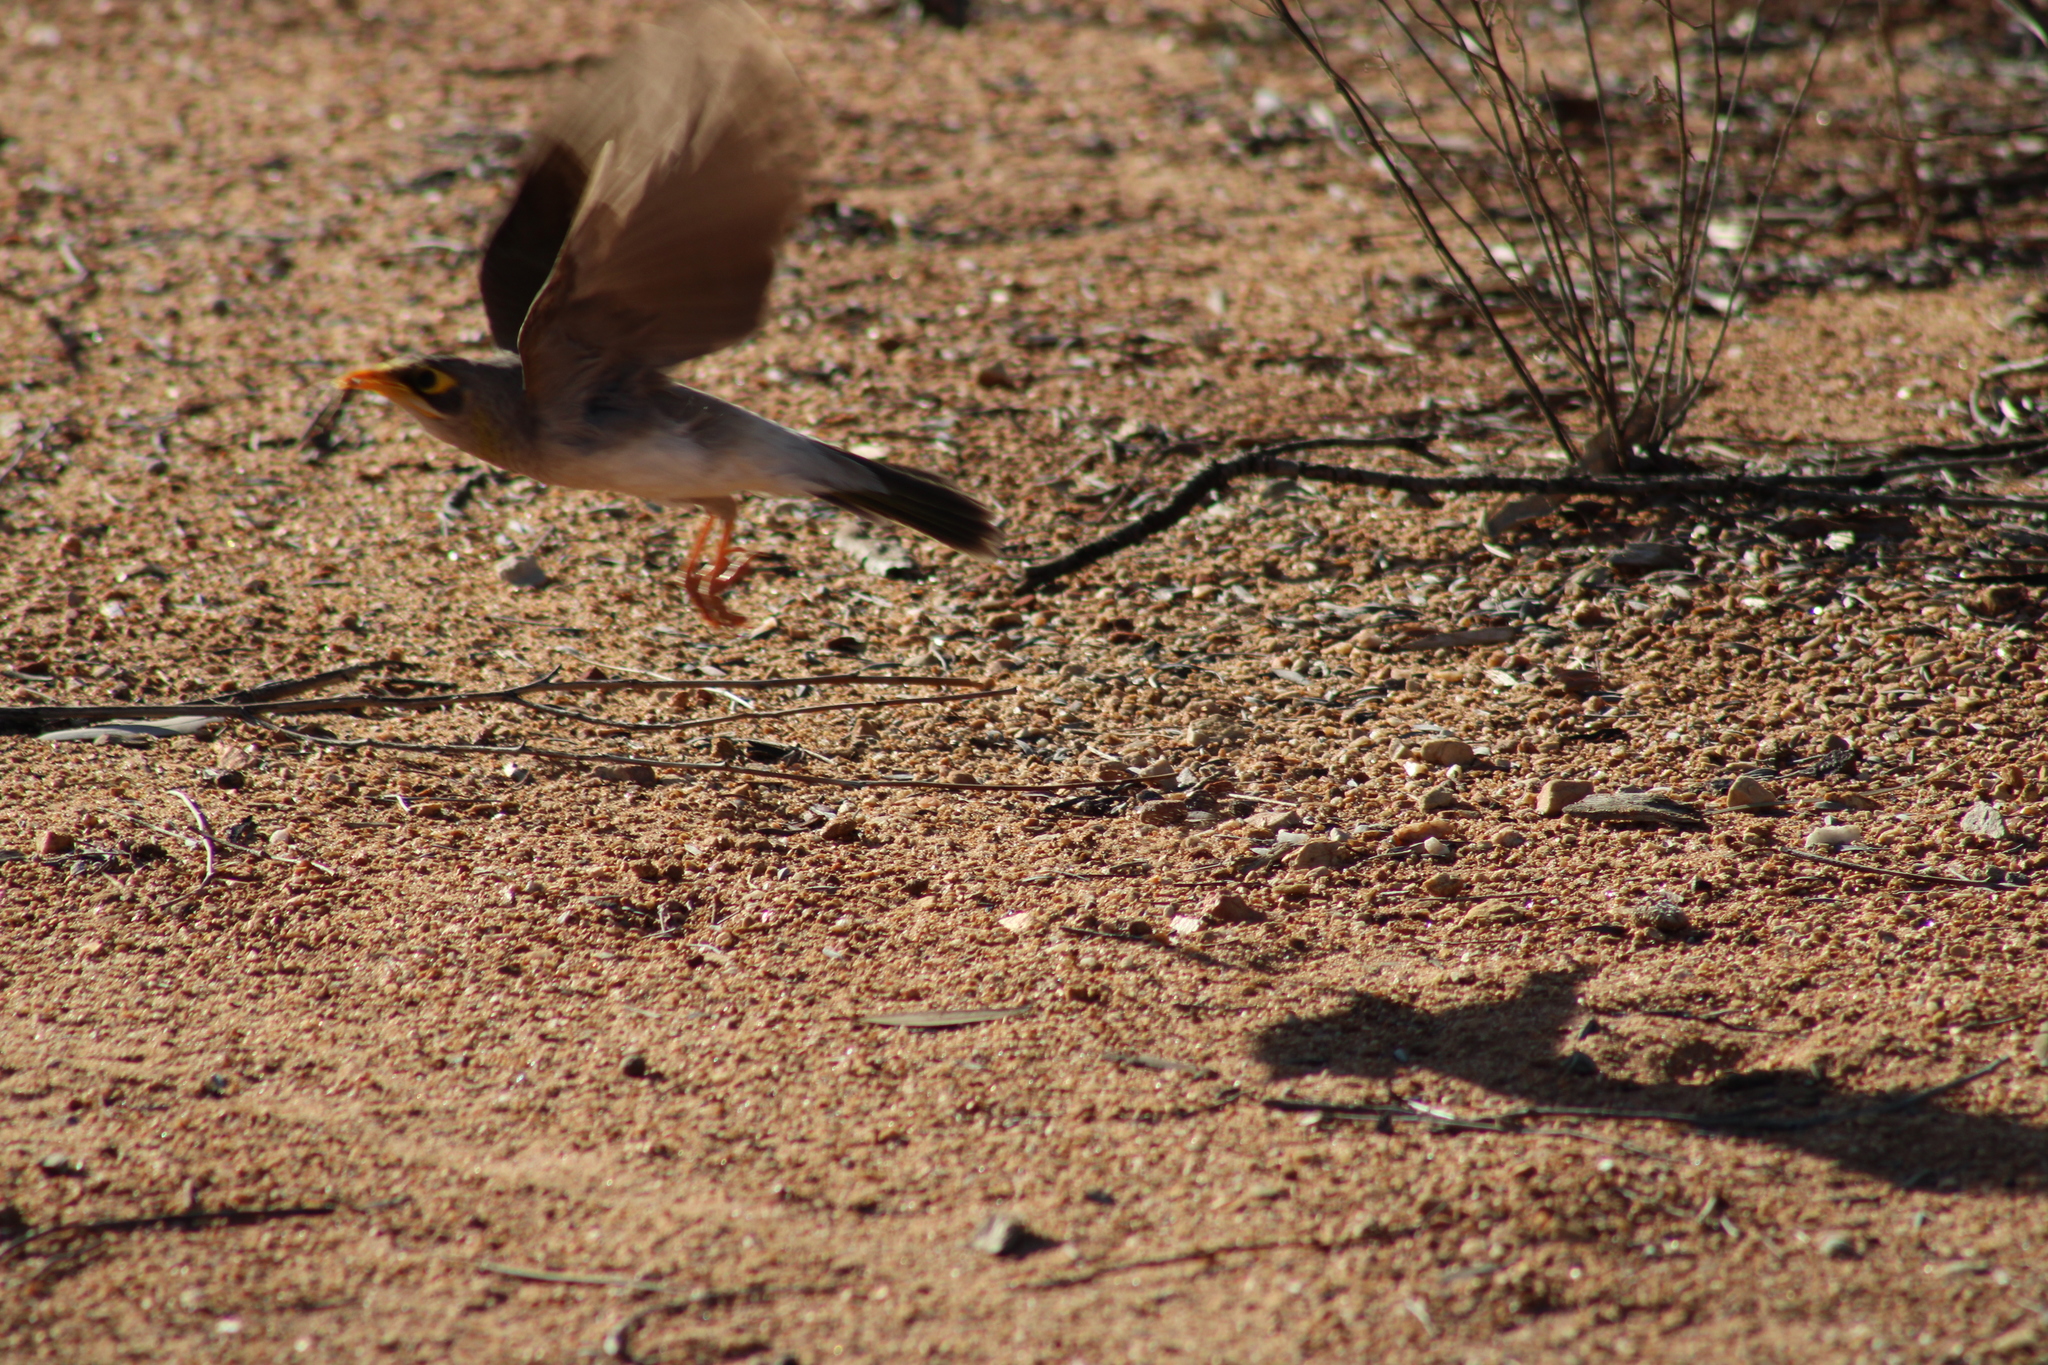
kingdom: Animalia
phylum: Chordata
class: Aves
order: Passeriformes
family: Meliphagidae
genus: Manorina
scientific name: Manorina flavigula
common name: Yellow-throated miner
